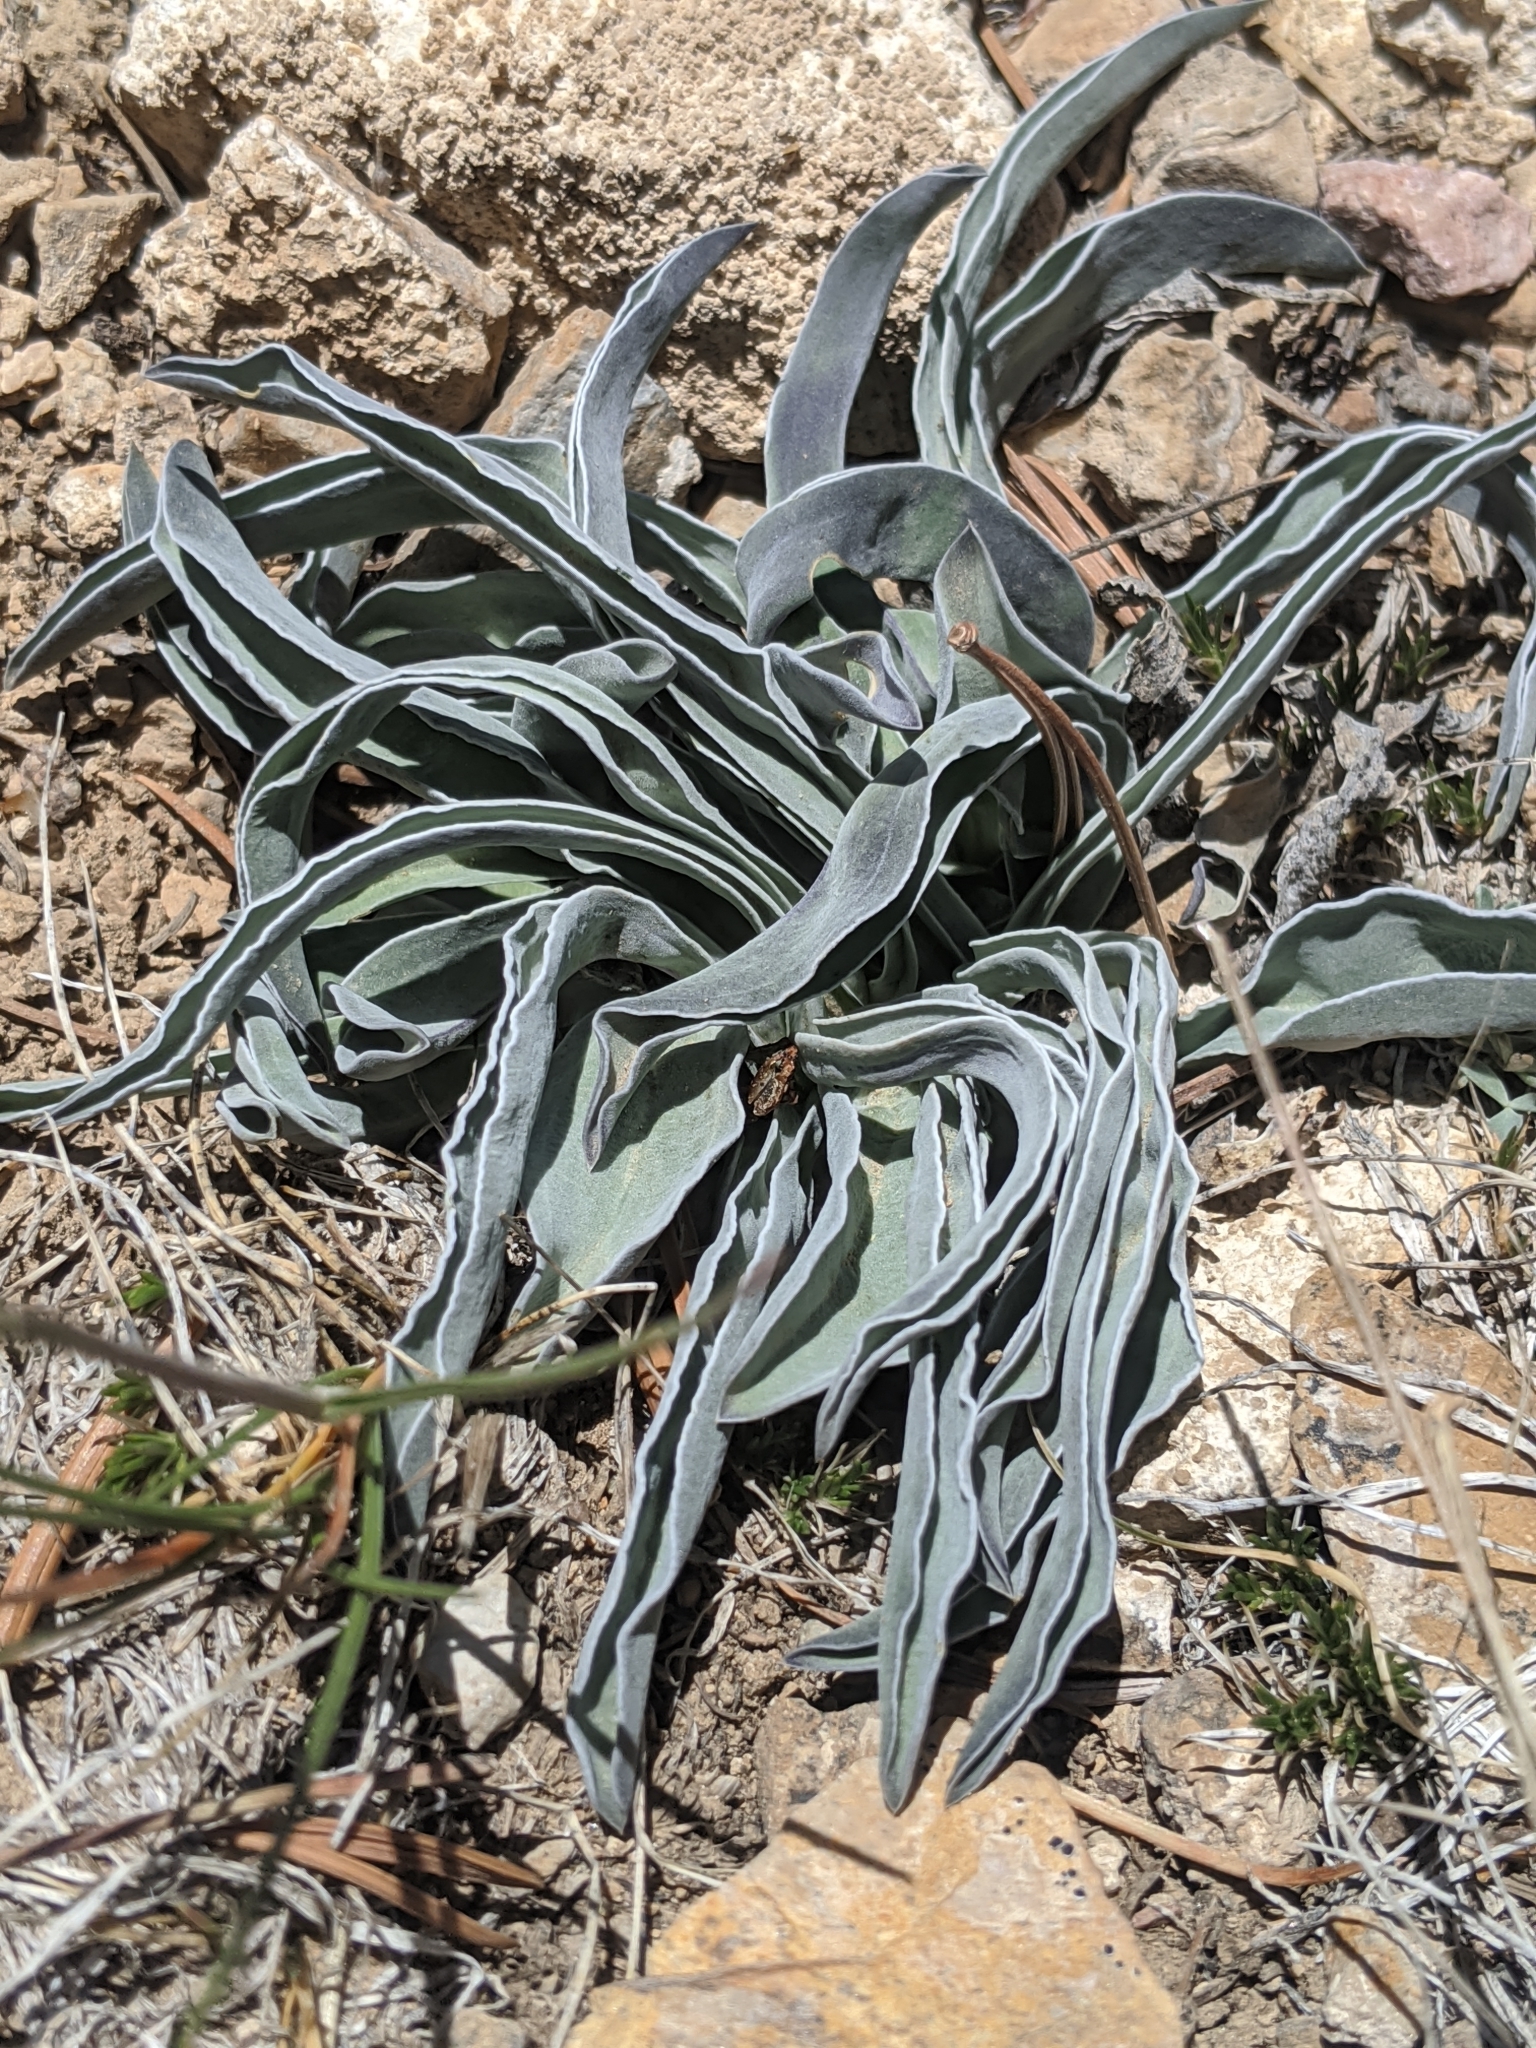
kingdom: Plantae
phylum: Tracheophyta
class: Magnoliopsida
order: Gentianales
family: Gentianaceae
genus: Frasera
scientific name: Frasera puberulenta
